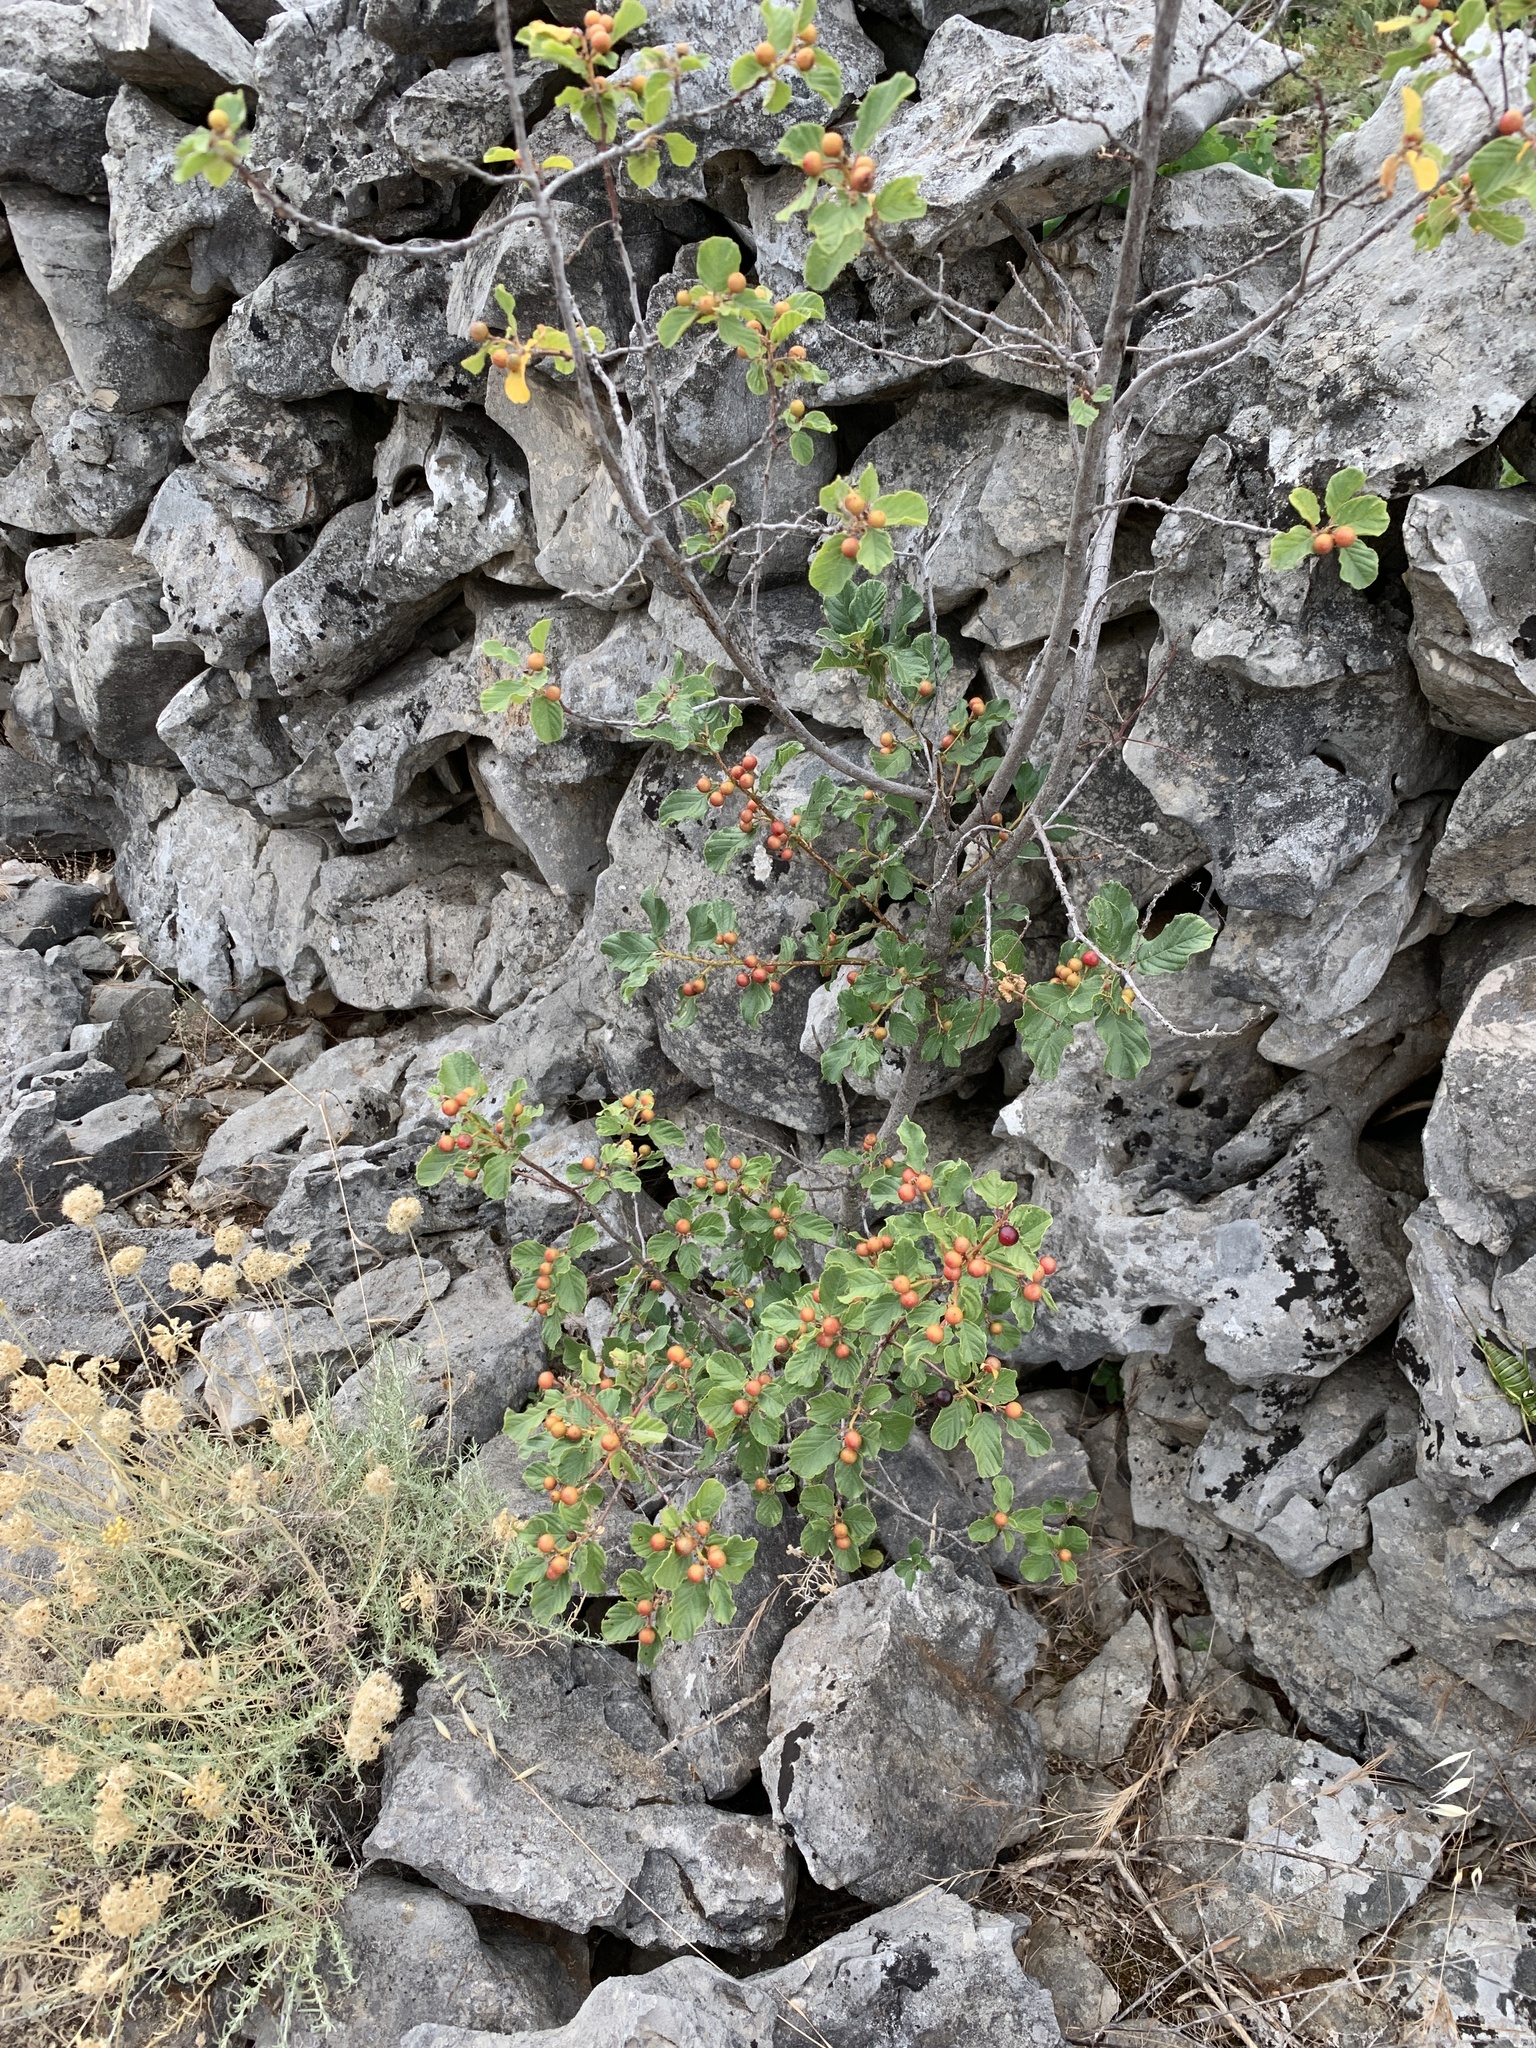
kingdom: Plantae
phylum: Tracheophyta
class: Magnoliopsida
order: Rosales
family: Rhamnaceae
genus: Frangula
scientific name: Frangula rupestris
